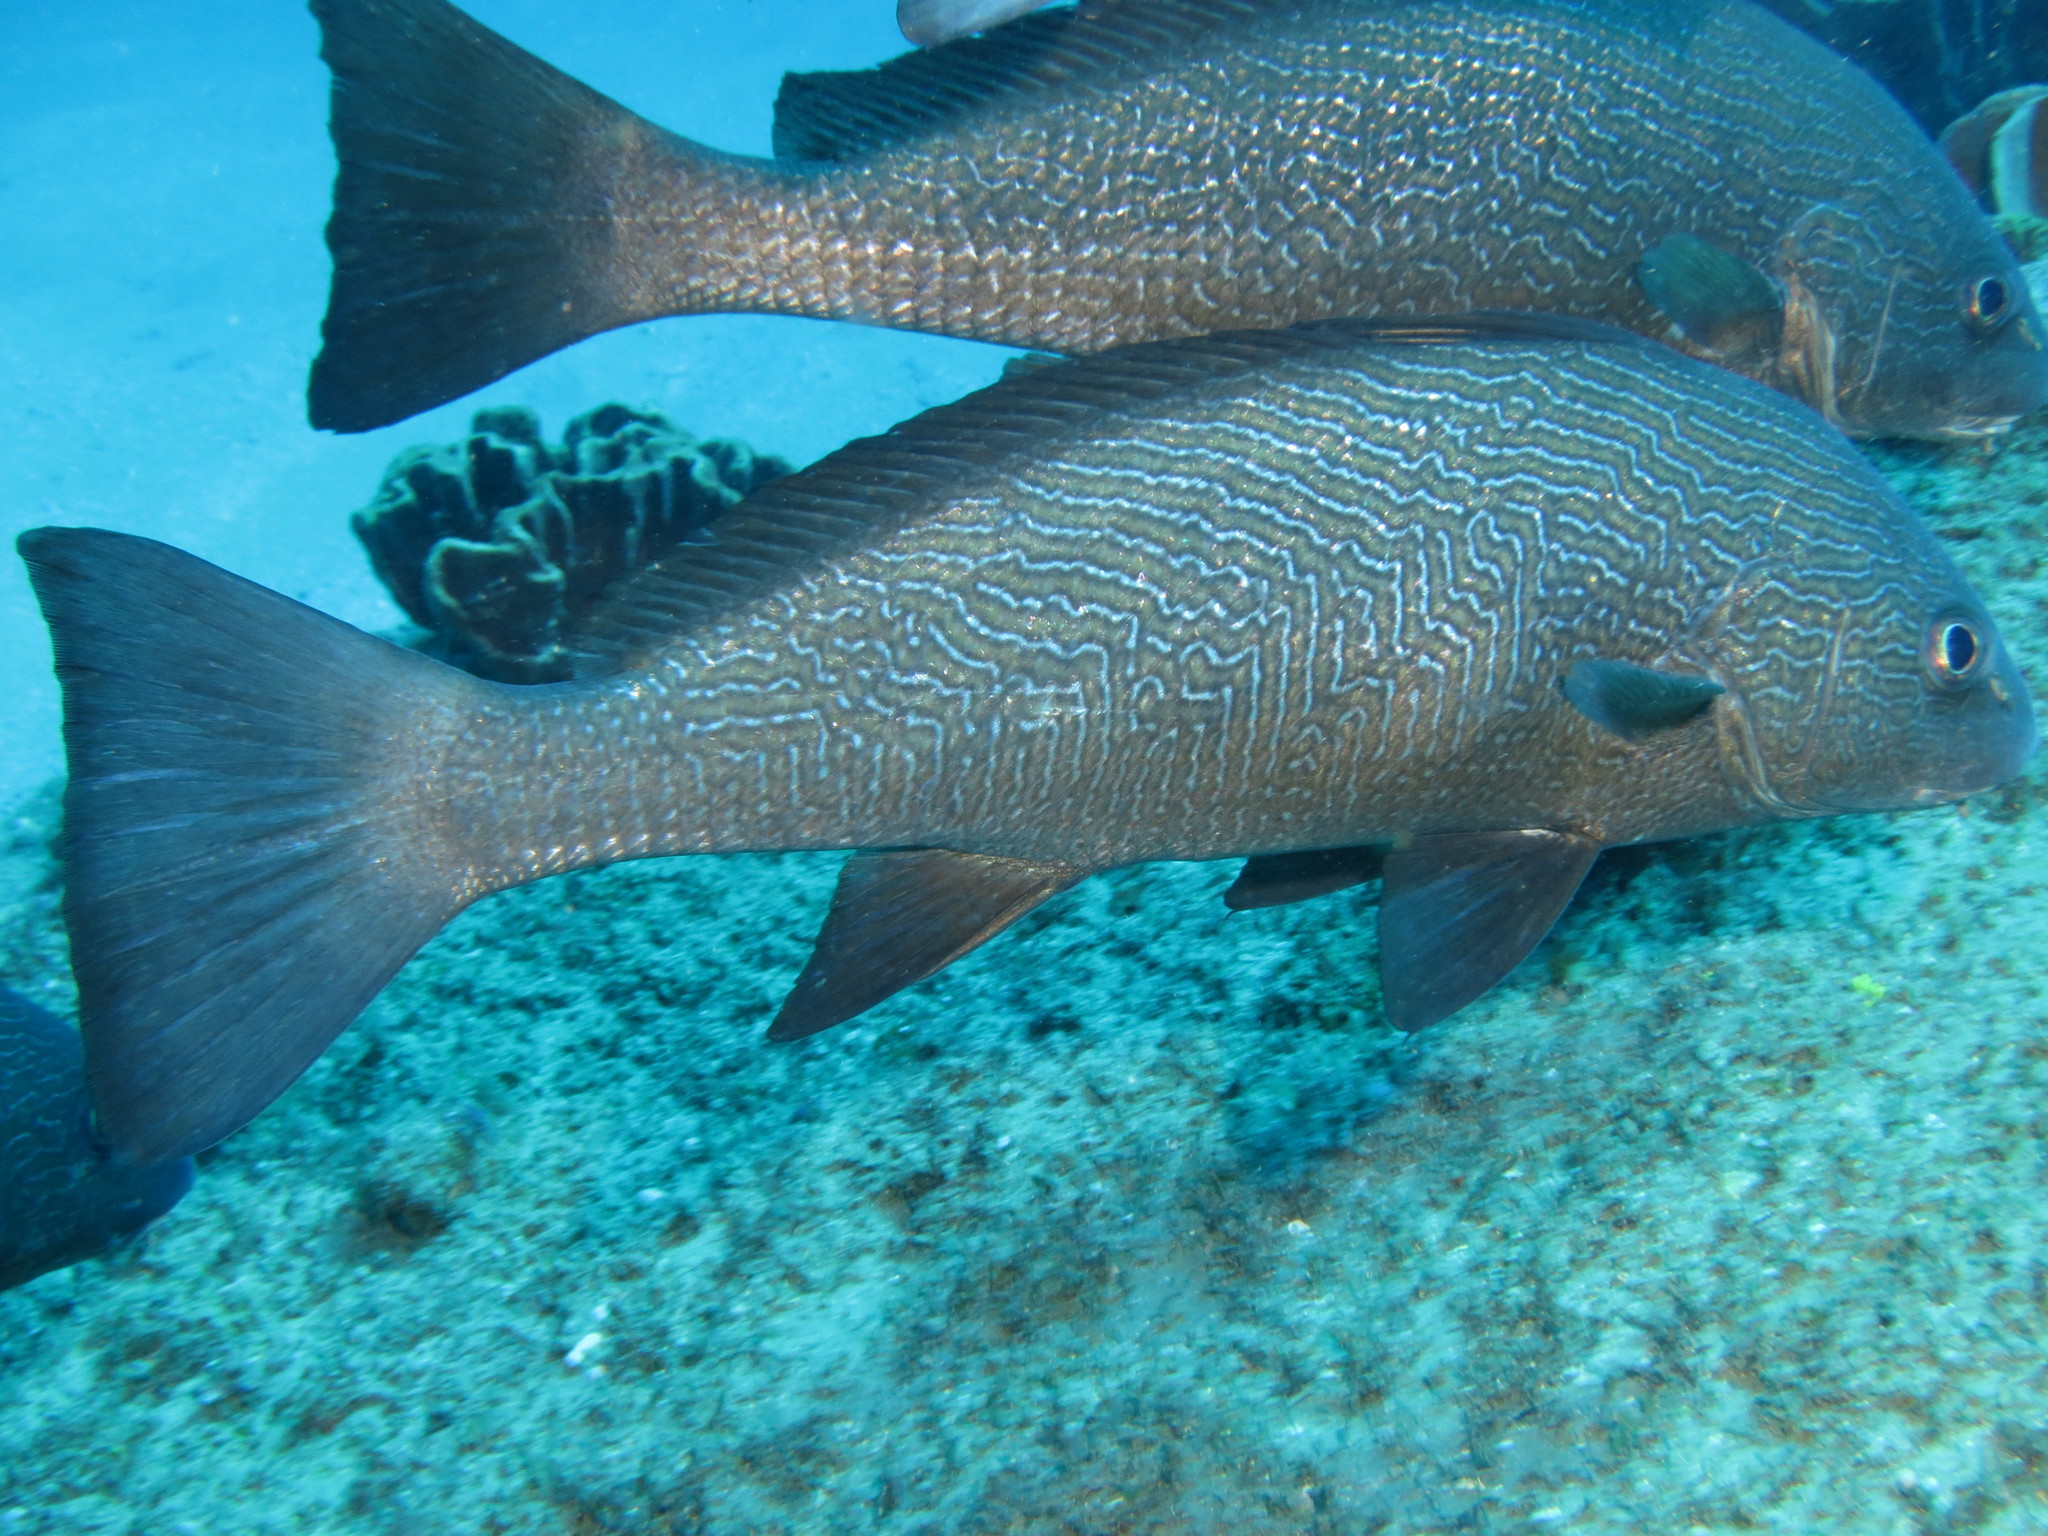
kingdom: Animalia
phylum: Chordata
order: Perciformes
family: Sciaenidae
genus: Umbrina
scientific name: Umbrina ronchus
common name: Slender baardman
